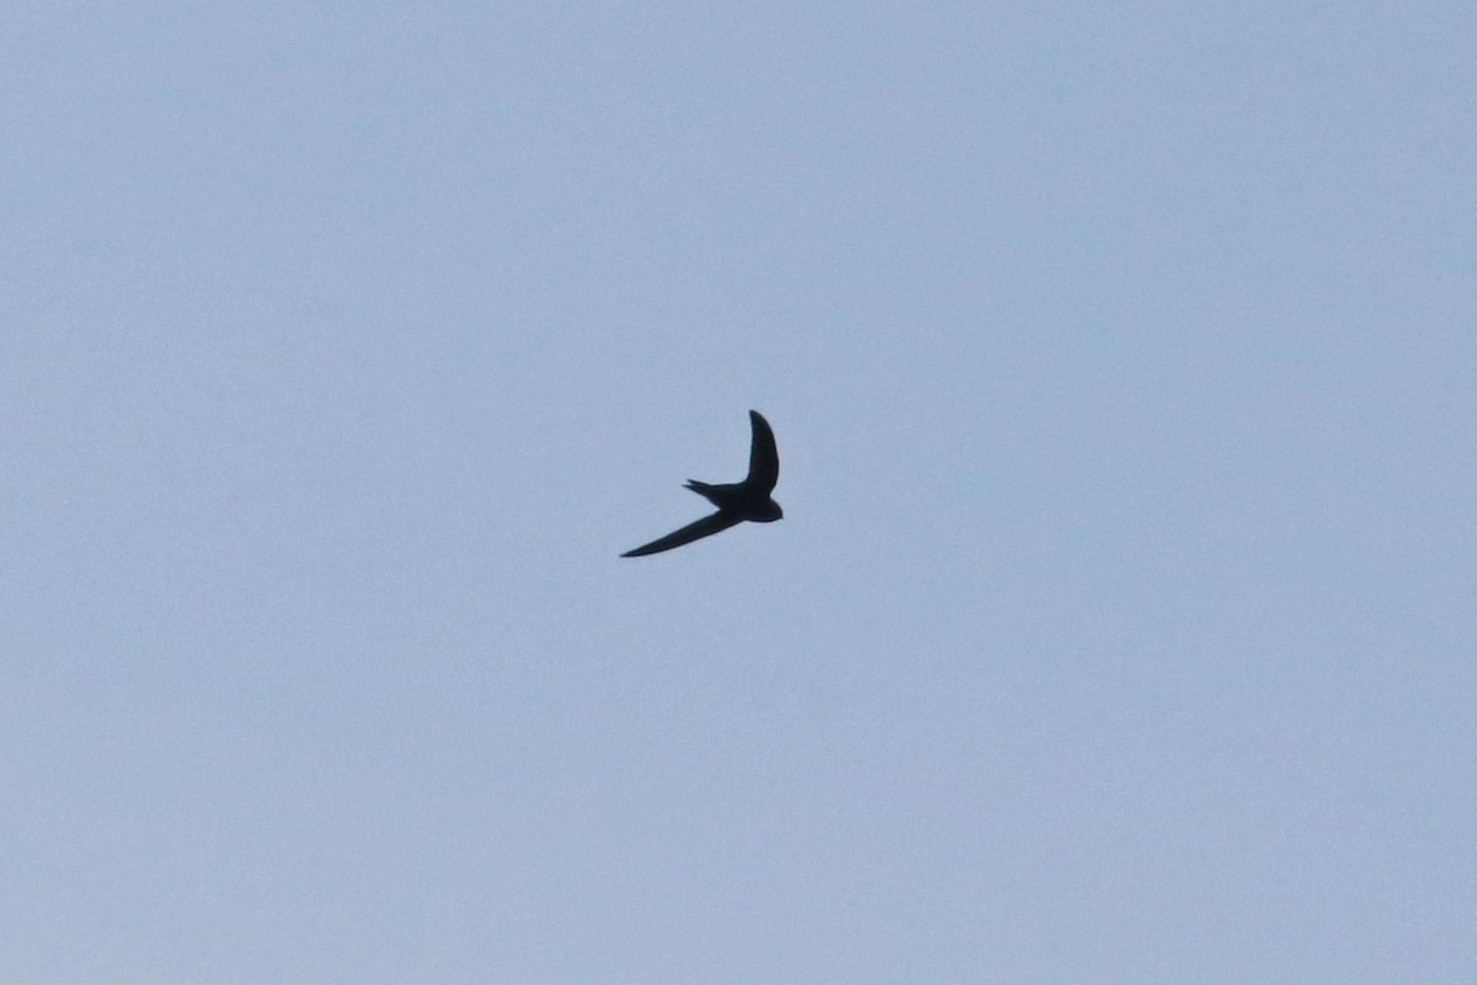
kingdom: Animalia
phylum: Chordata
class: Aves
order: Apodiformes
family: Apodidae
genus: Apus
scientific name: Apus apus
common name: Common swift
